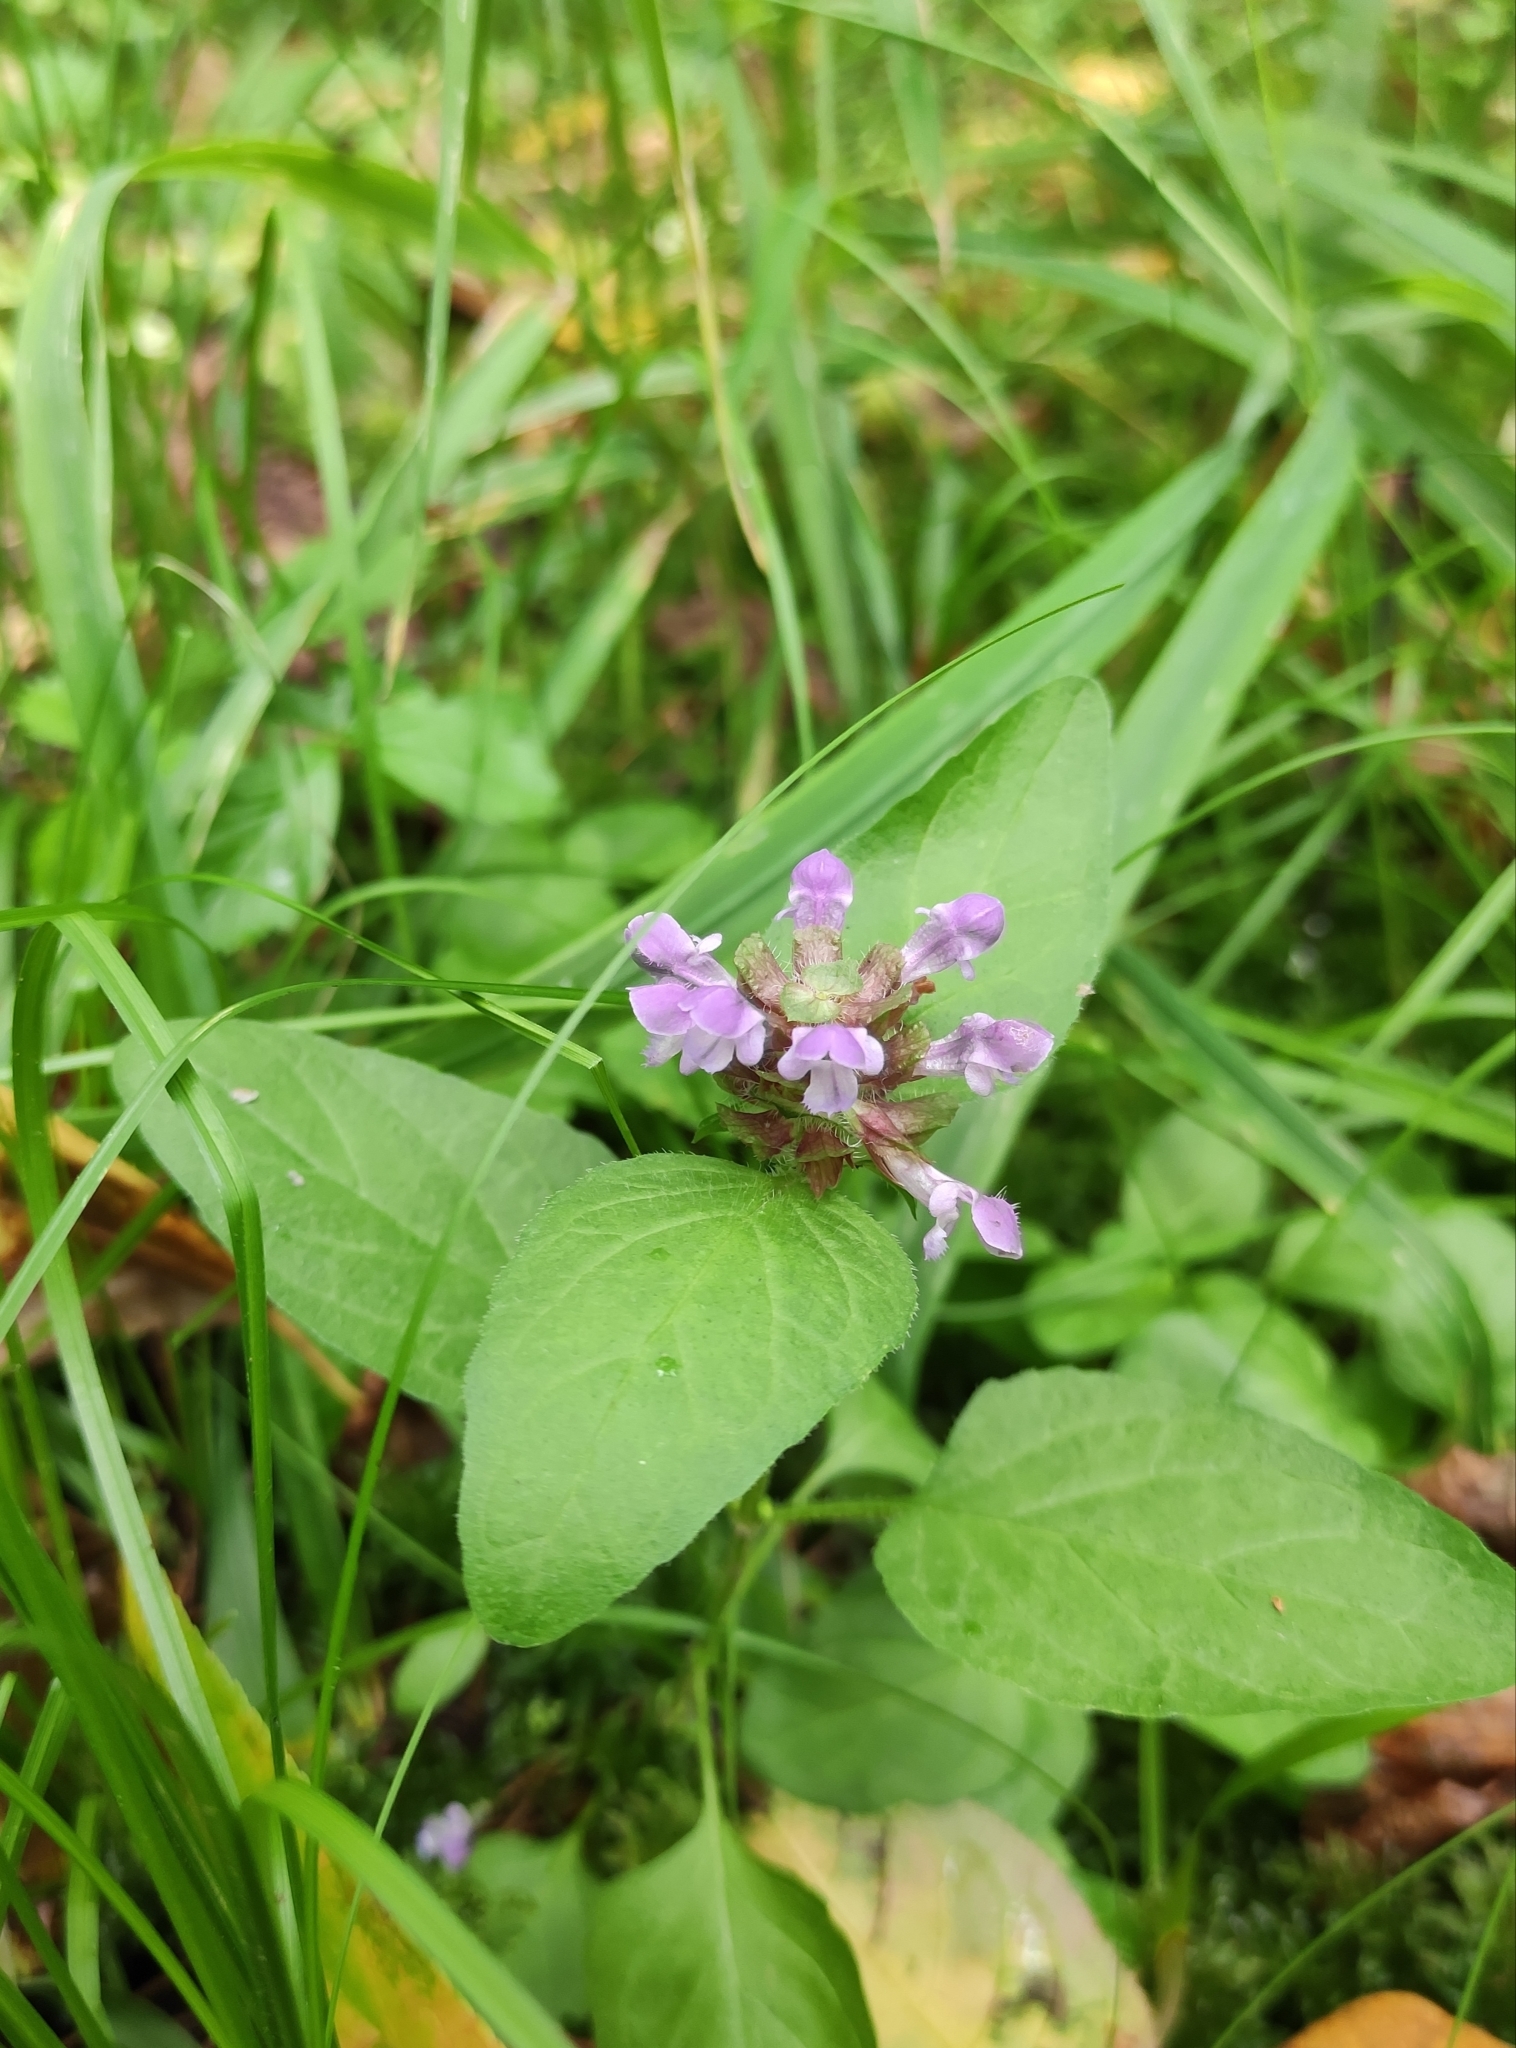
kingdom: Plantae
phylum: Tracheophyta
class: Magnoliopsida
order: Lamiales
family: Lamiaceae
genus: Prunella
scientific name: Prunella vulgaris
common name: Heal-all
